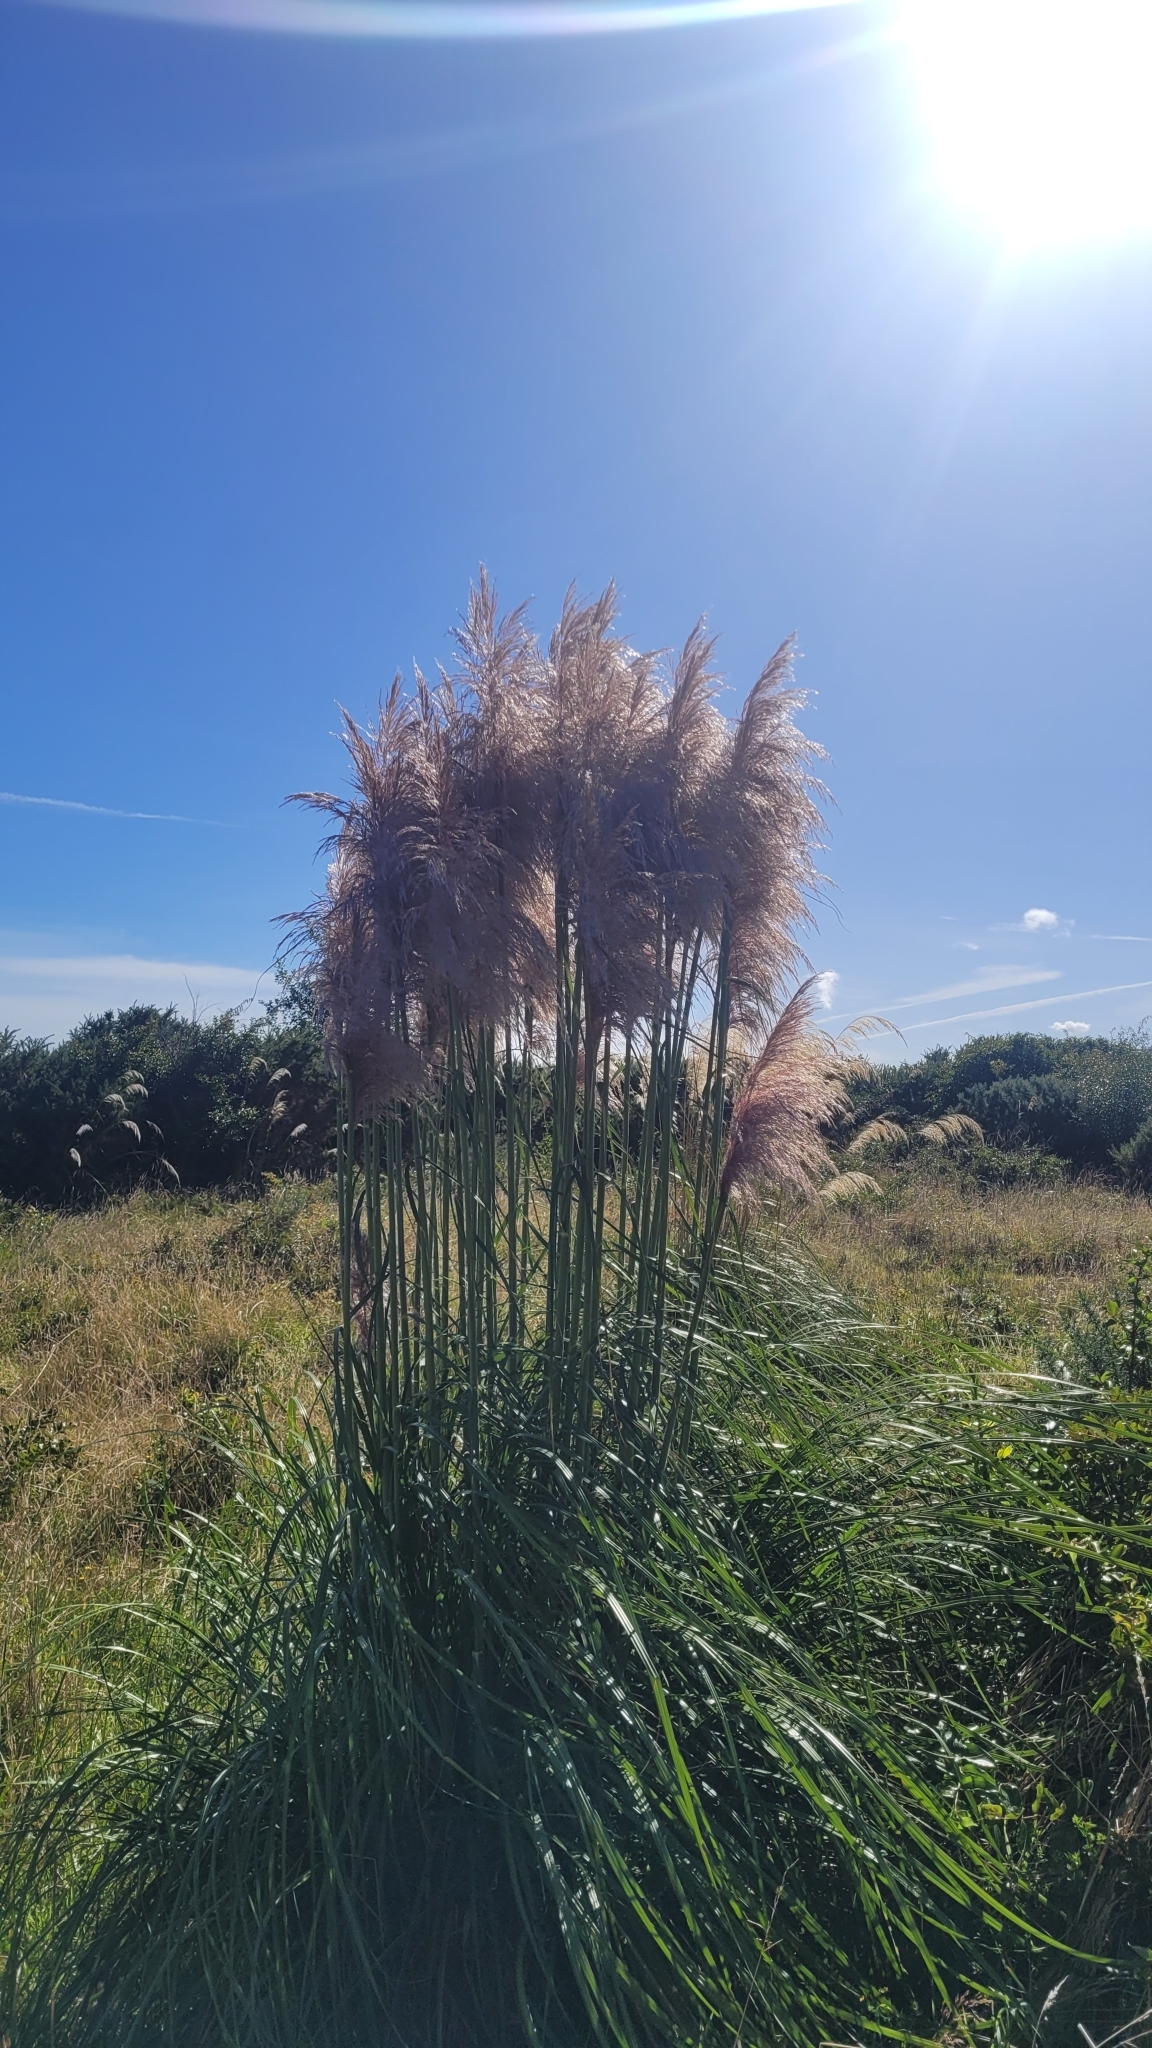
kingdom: Plantae
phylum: Tracheophyta
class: Liliopsida
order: Poales
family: Poaceae
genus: Cortaderia
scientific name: Cortaderia jubata
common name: Purple pampas grass
